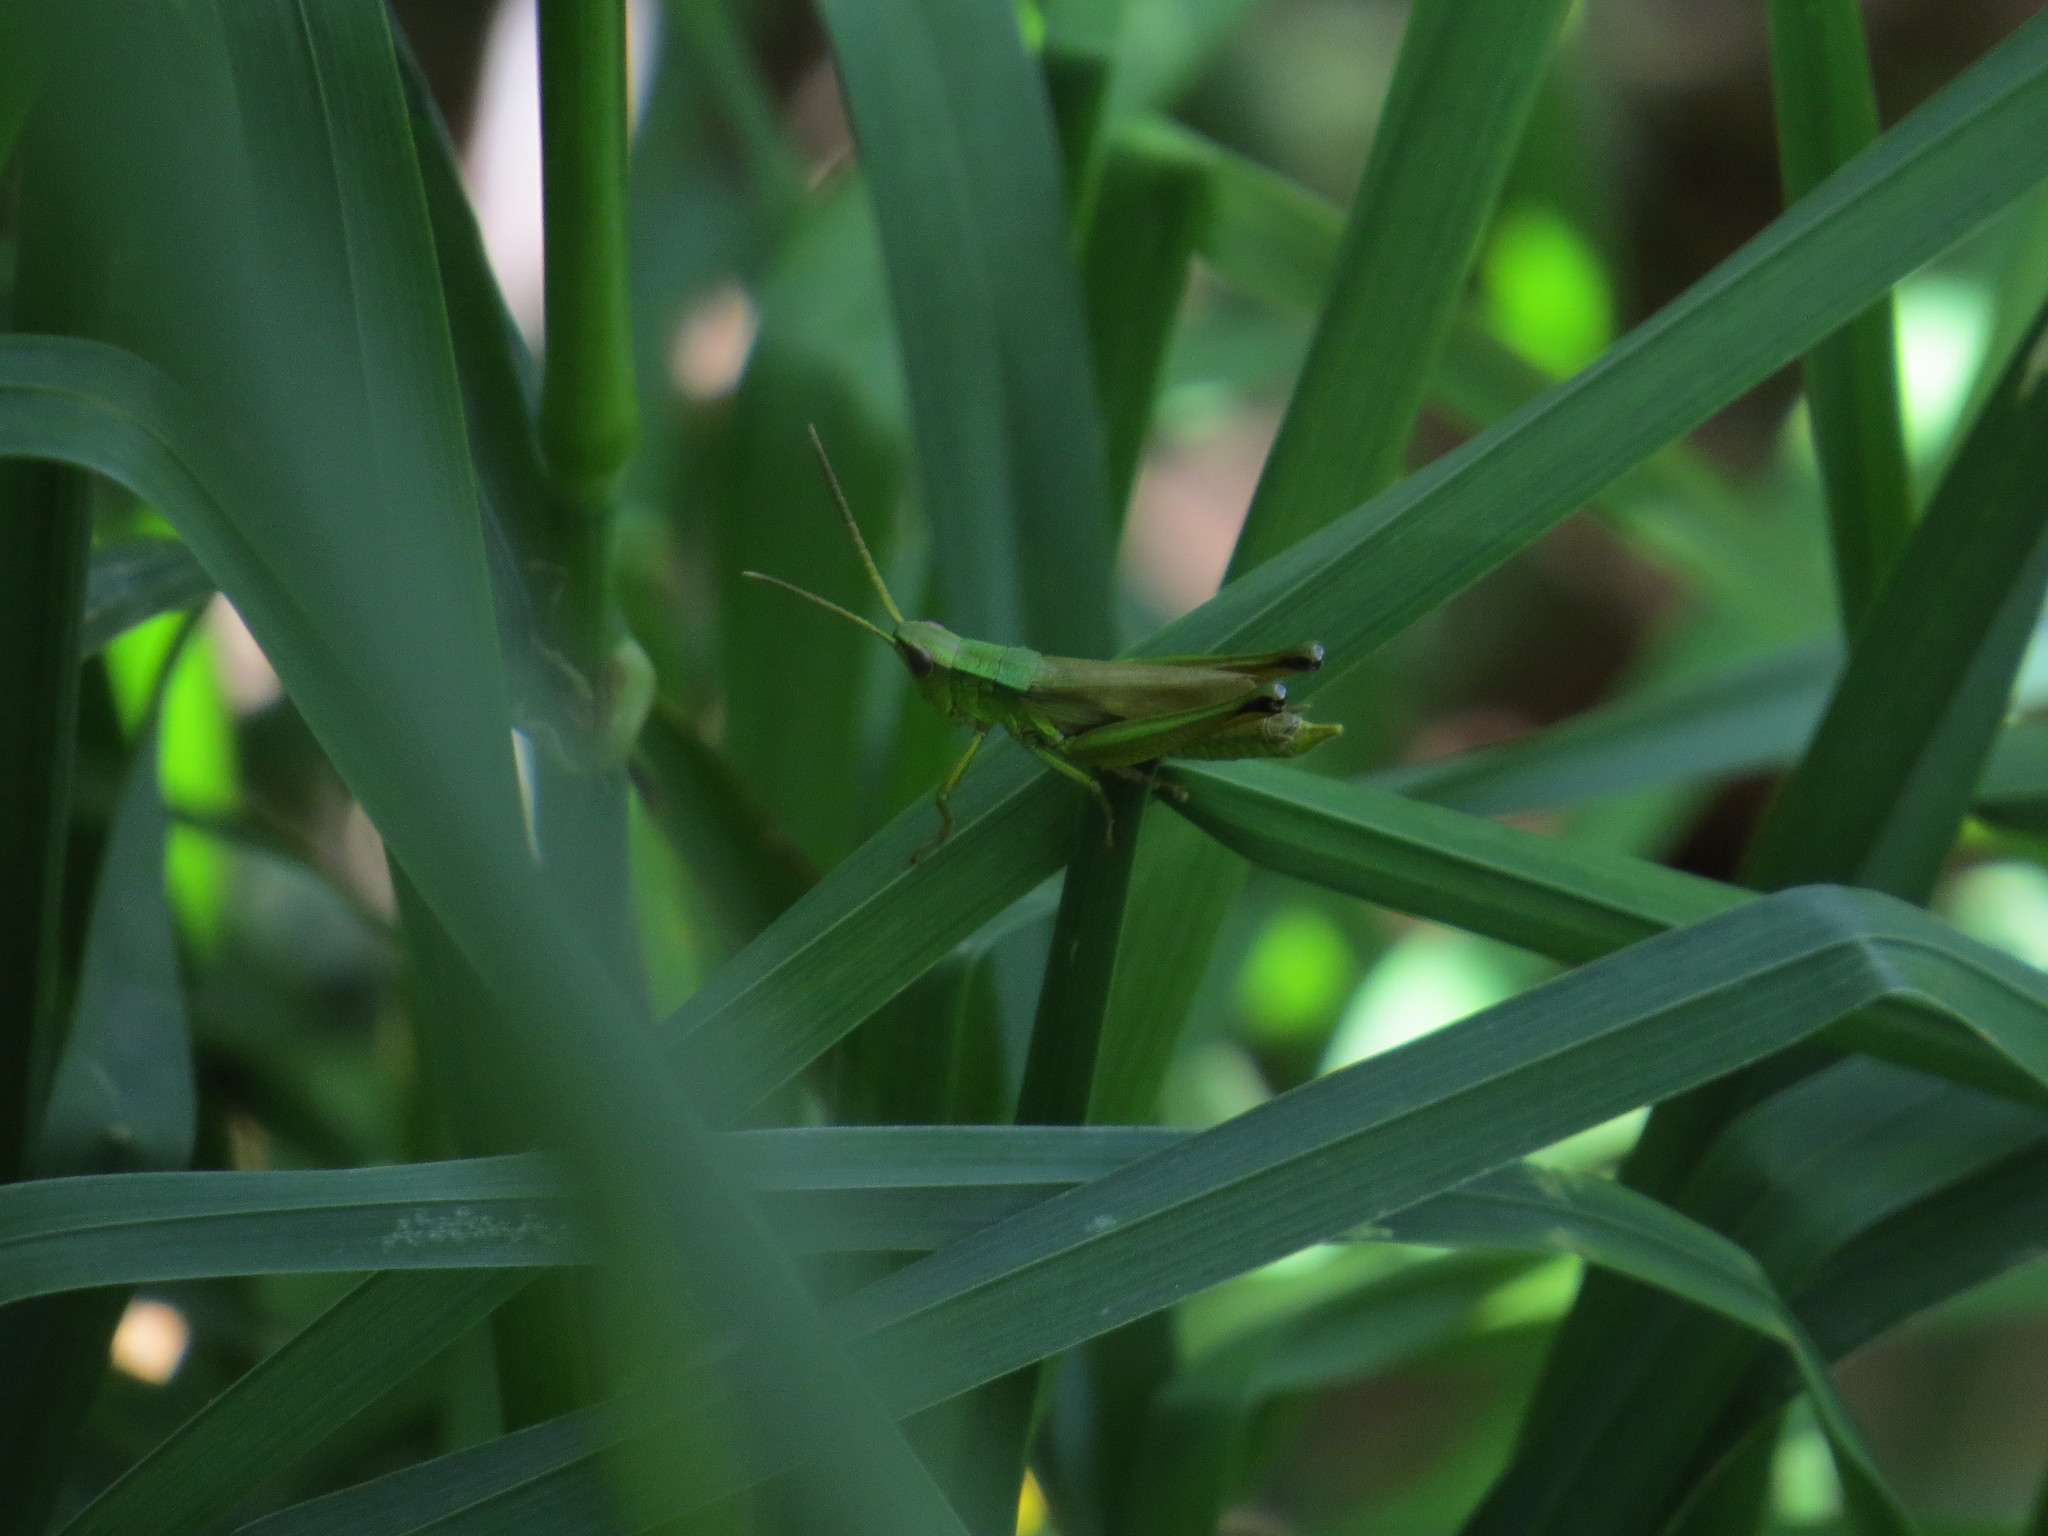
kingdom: Animalia
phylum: Arthropoda
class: Insecta
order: Orthoptera
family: Acrididae
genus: Chrysochraon
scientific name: Chrysochraon dispar
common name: Large gold grasshopper
